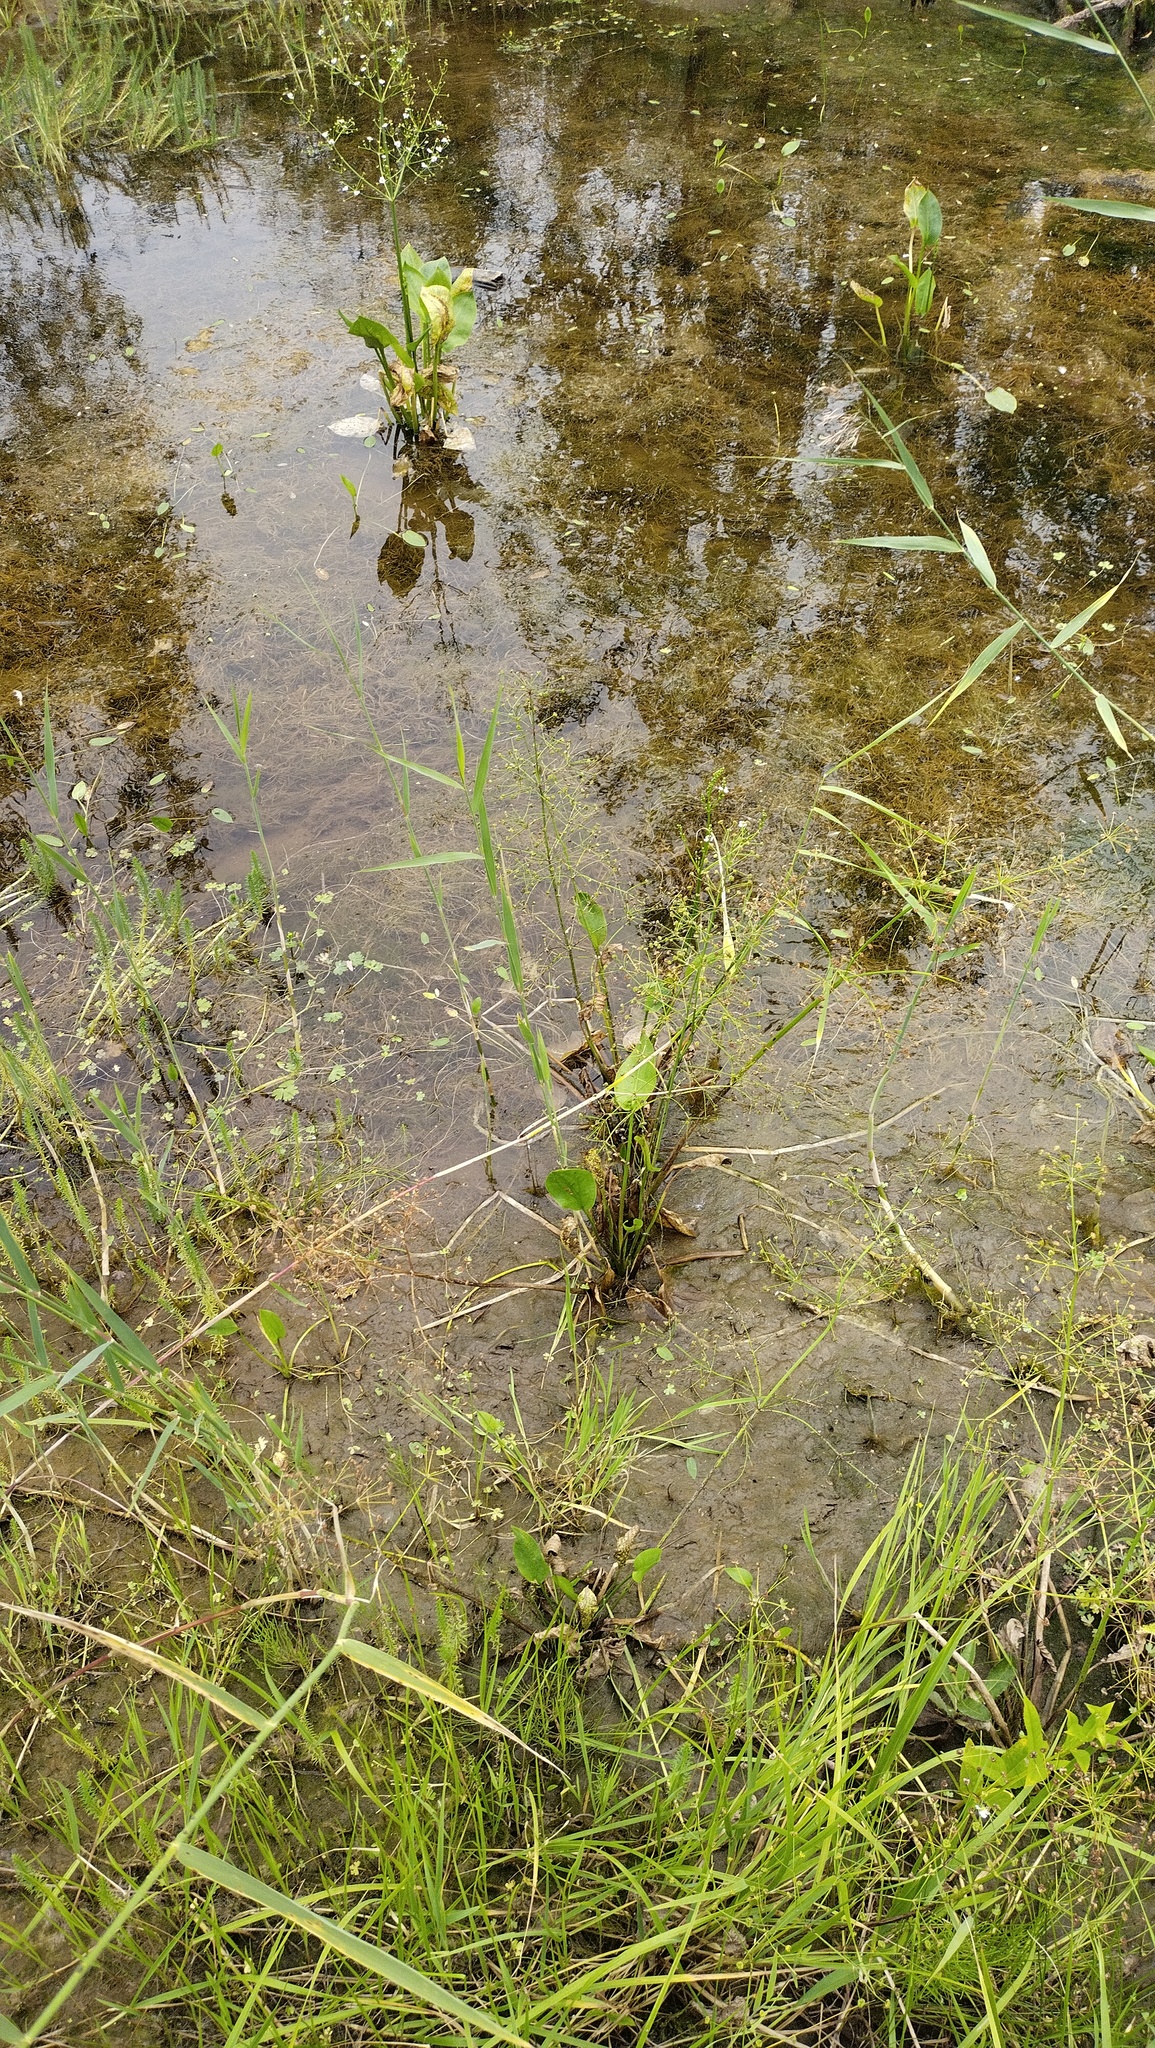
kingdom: Plantae
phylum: Tracheophyta
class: Liliopsida
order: Alismatales
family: Alismataceae
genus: Alisma
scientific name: Alisma plantago-aquatica
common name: Water-plantain
